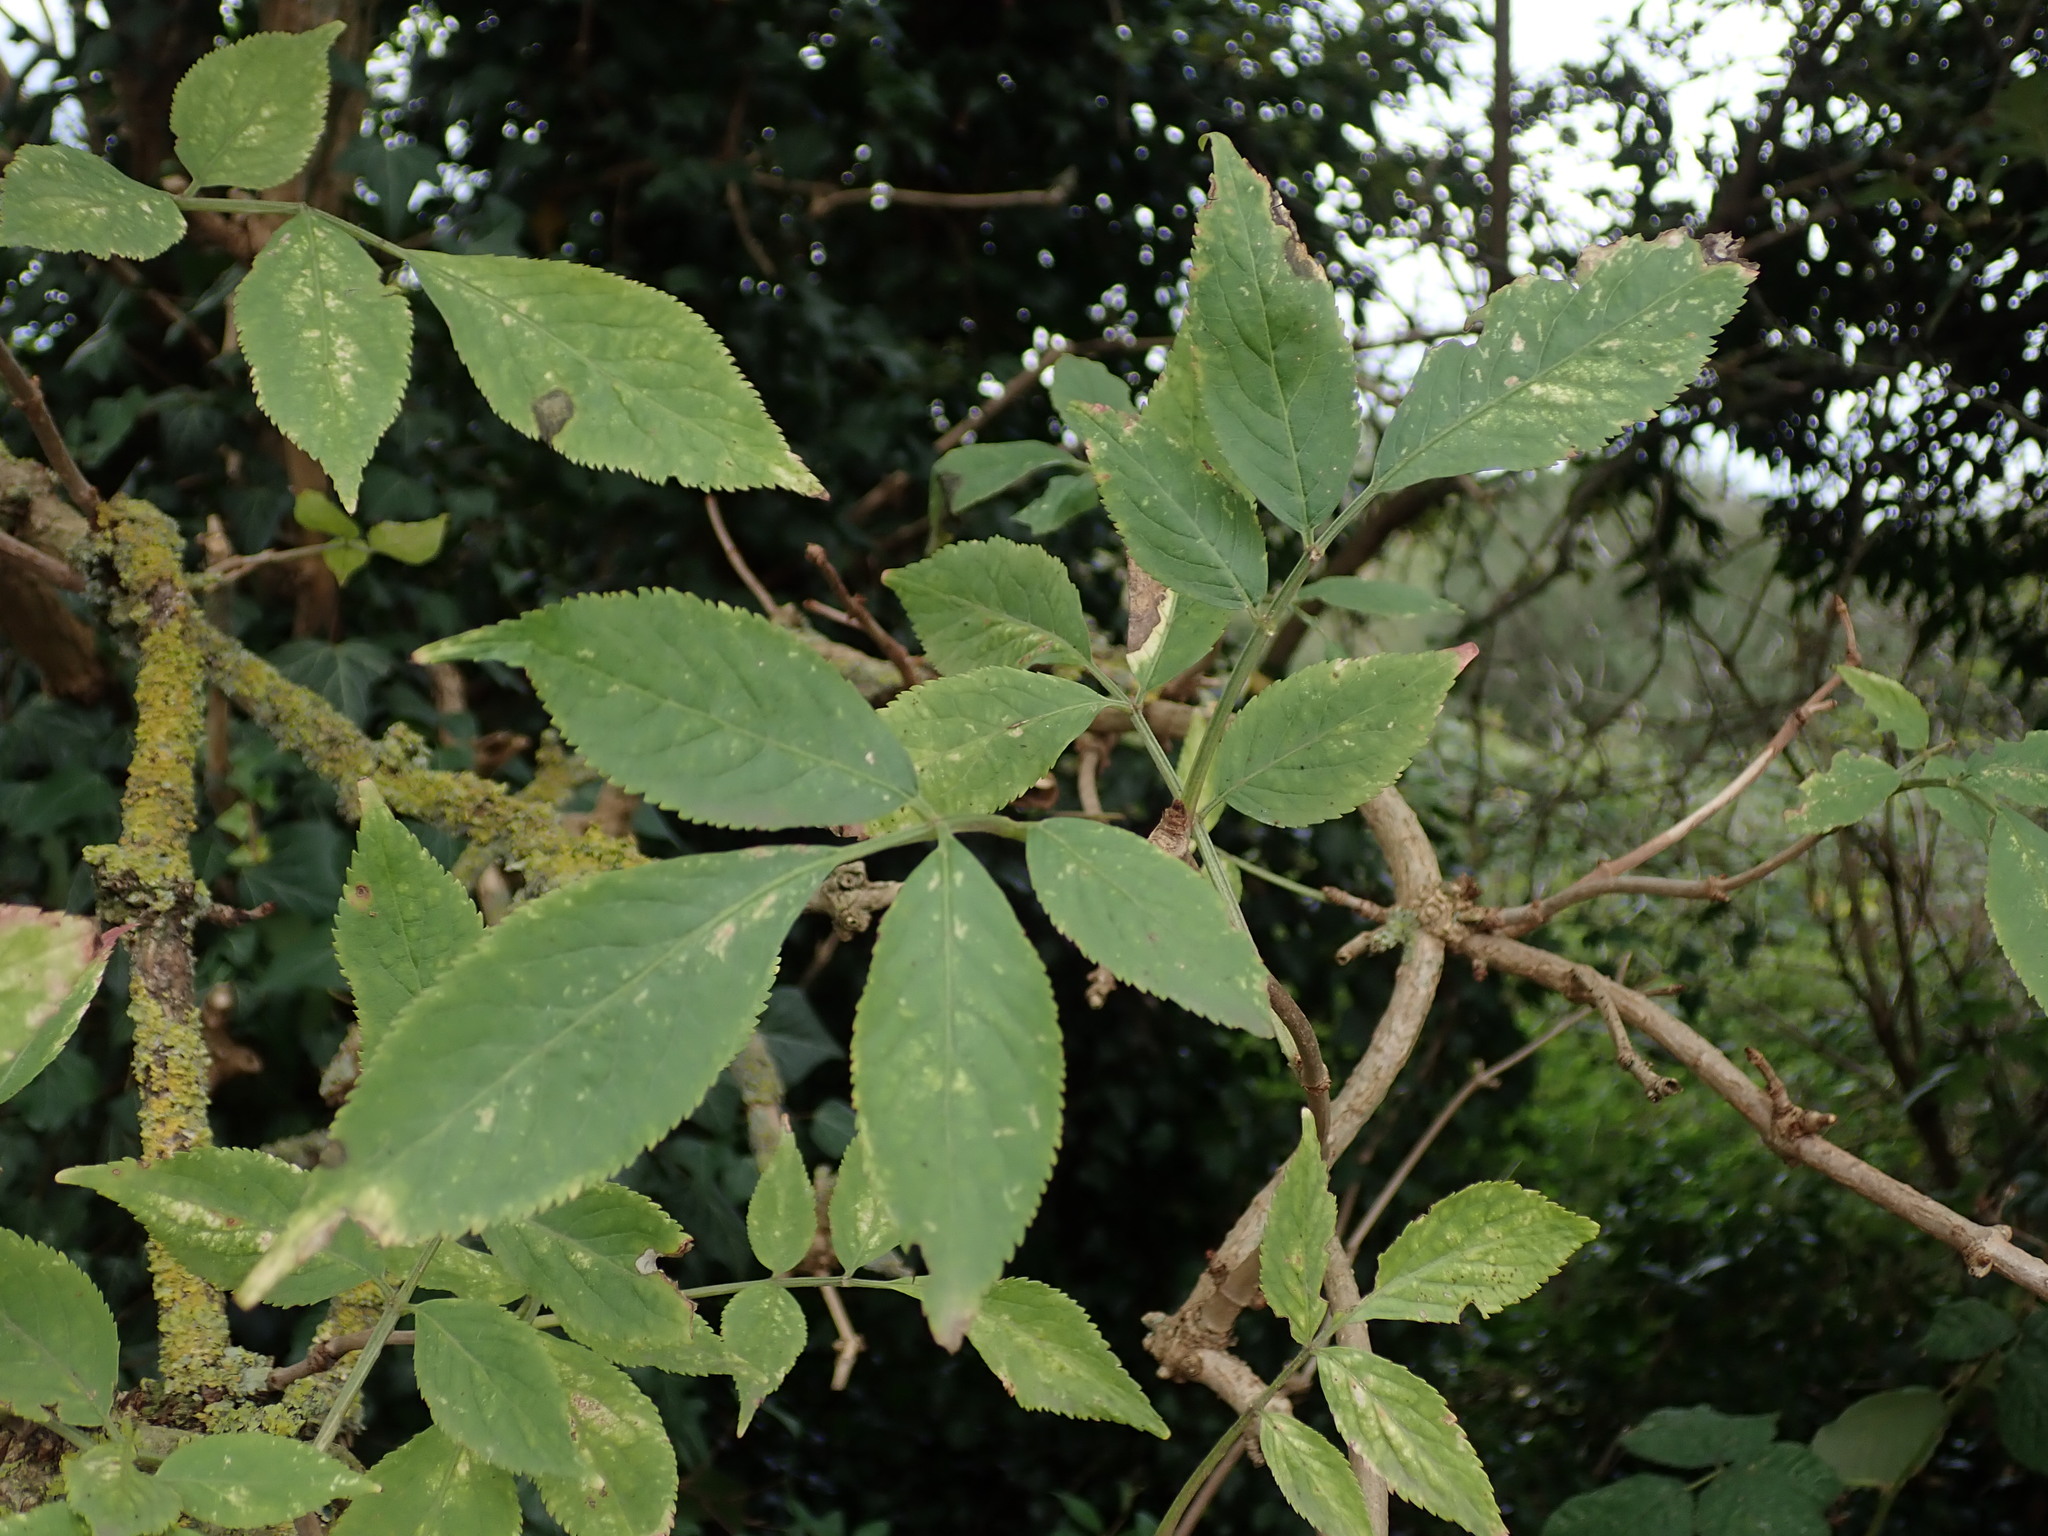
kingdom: Plantae
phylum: Tracheophyta
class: Magnoliopsida
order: Dipsacales
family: Viburnaceae
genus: Sambucus
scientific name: Sambucus nigra
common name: Elder
